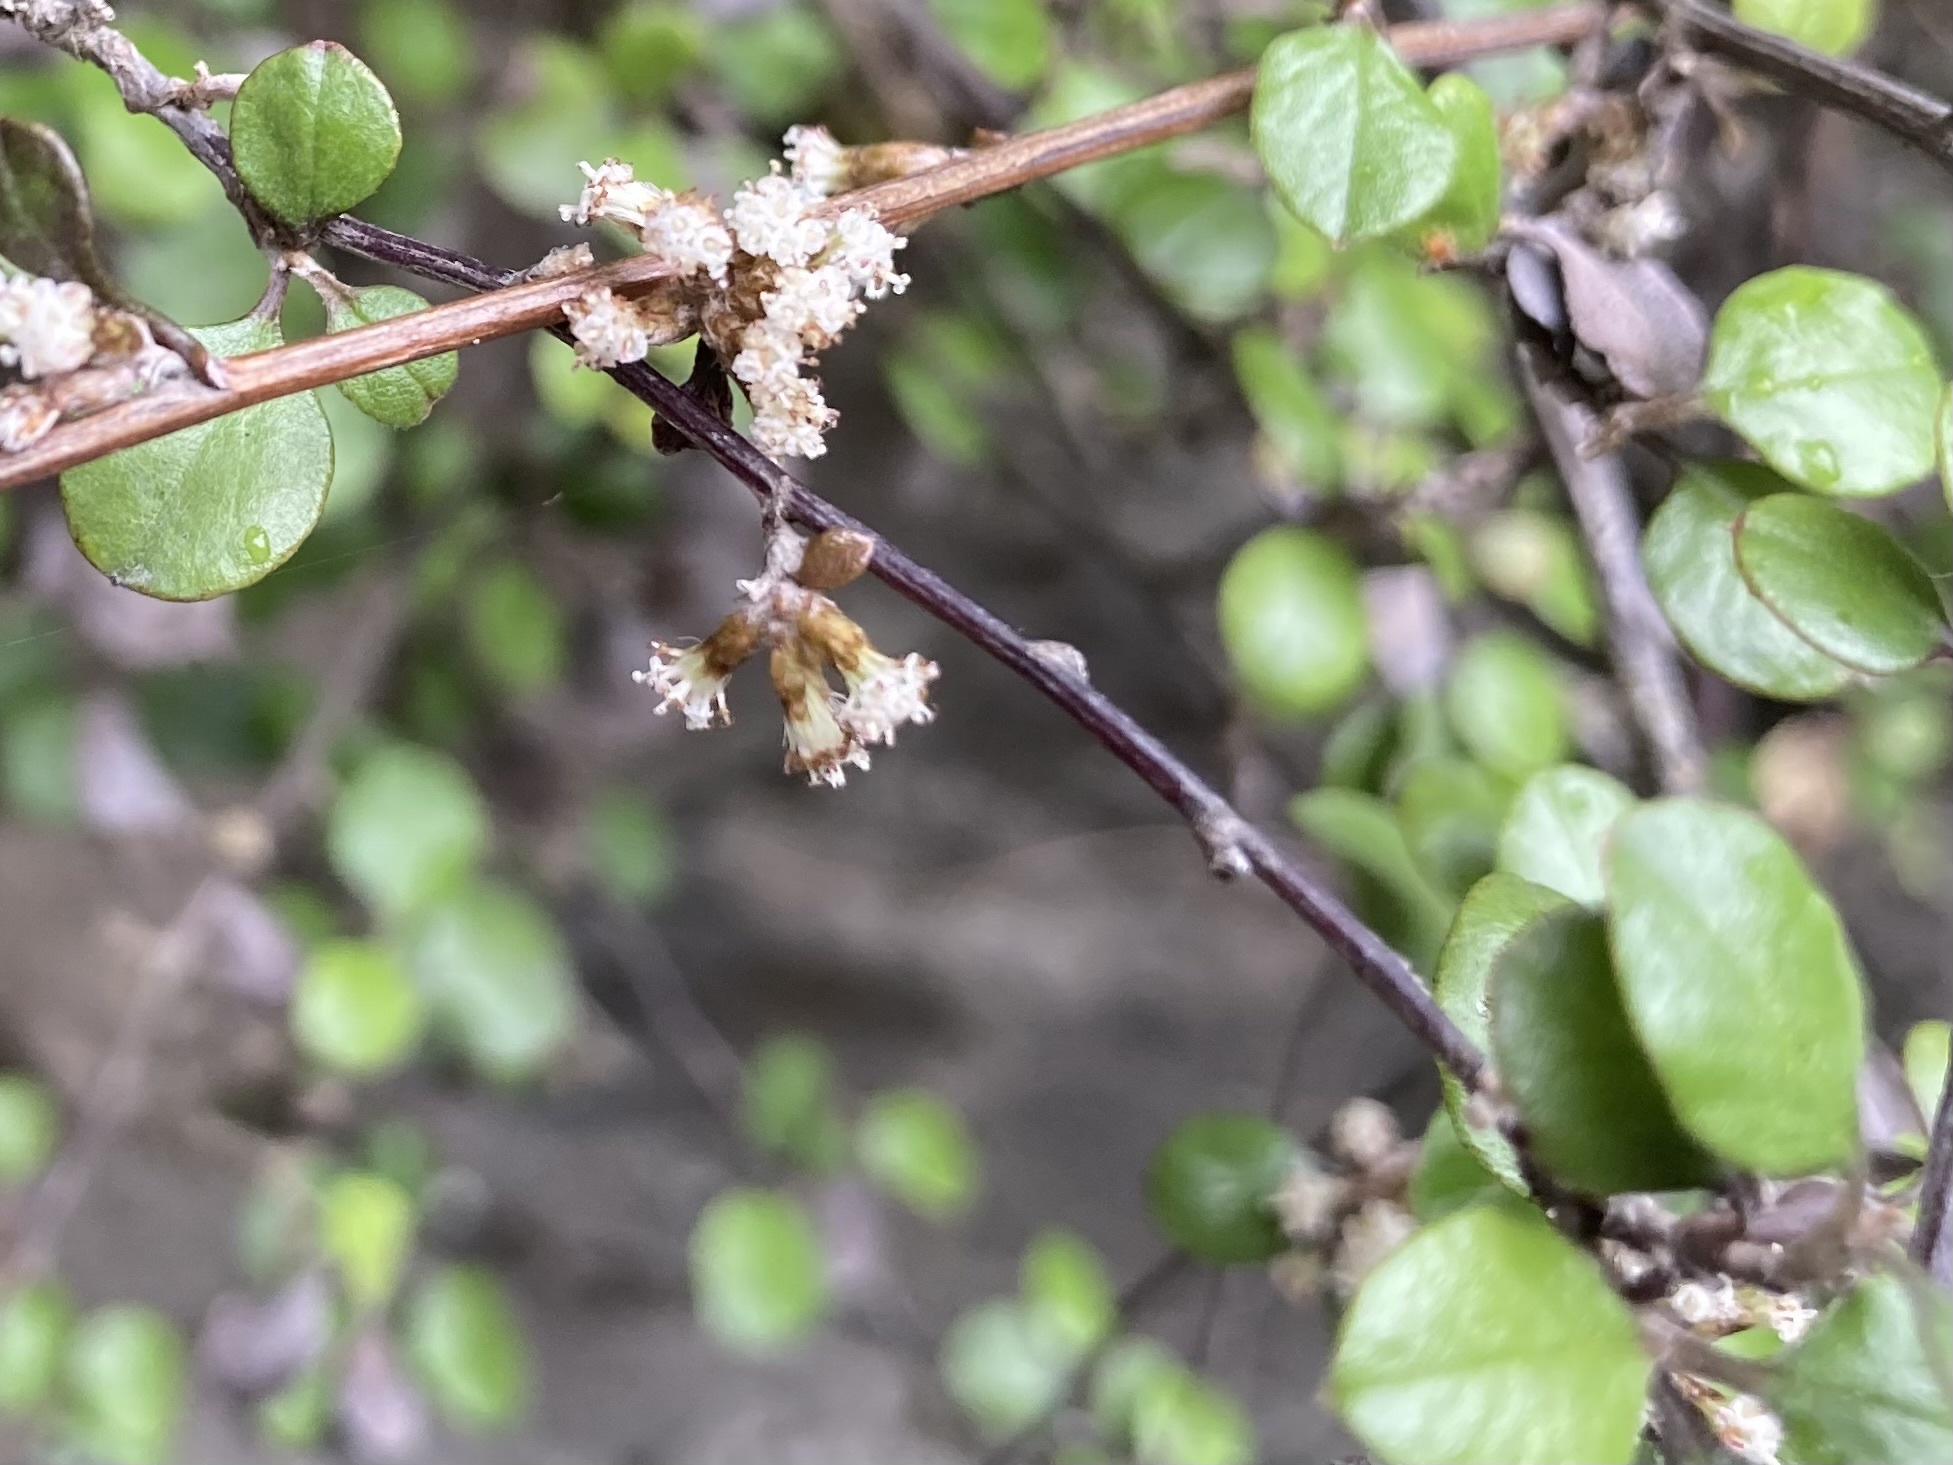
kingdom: Plantae
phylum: Tracheophyta
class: Magnoliopsida
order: Asterales
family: Asteraceae
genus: Ozothamnus
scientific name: Ozothamnus glomeratus
